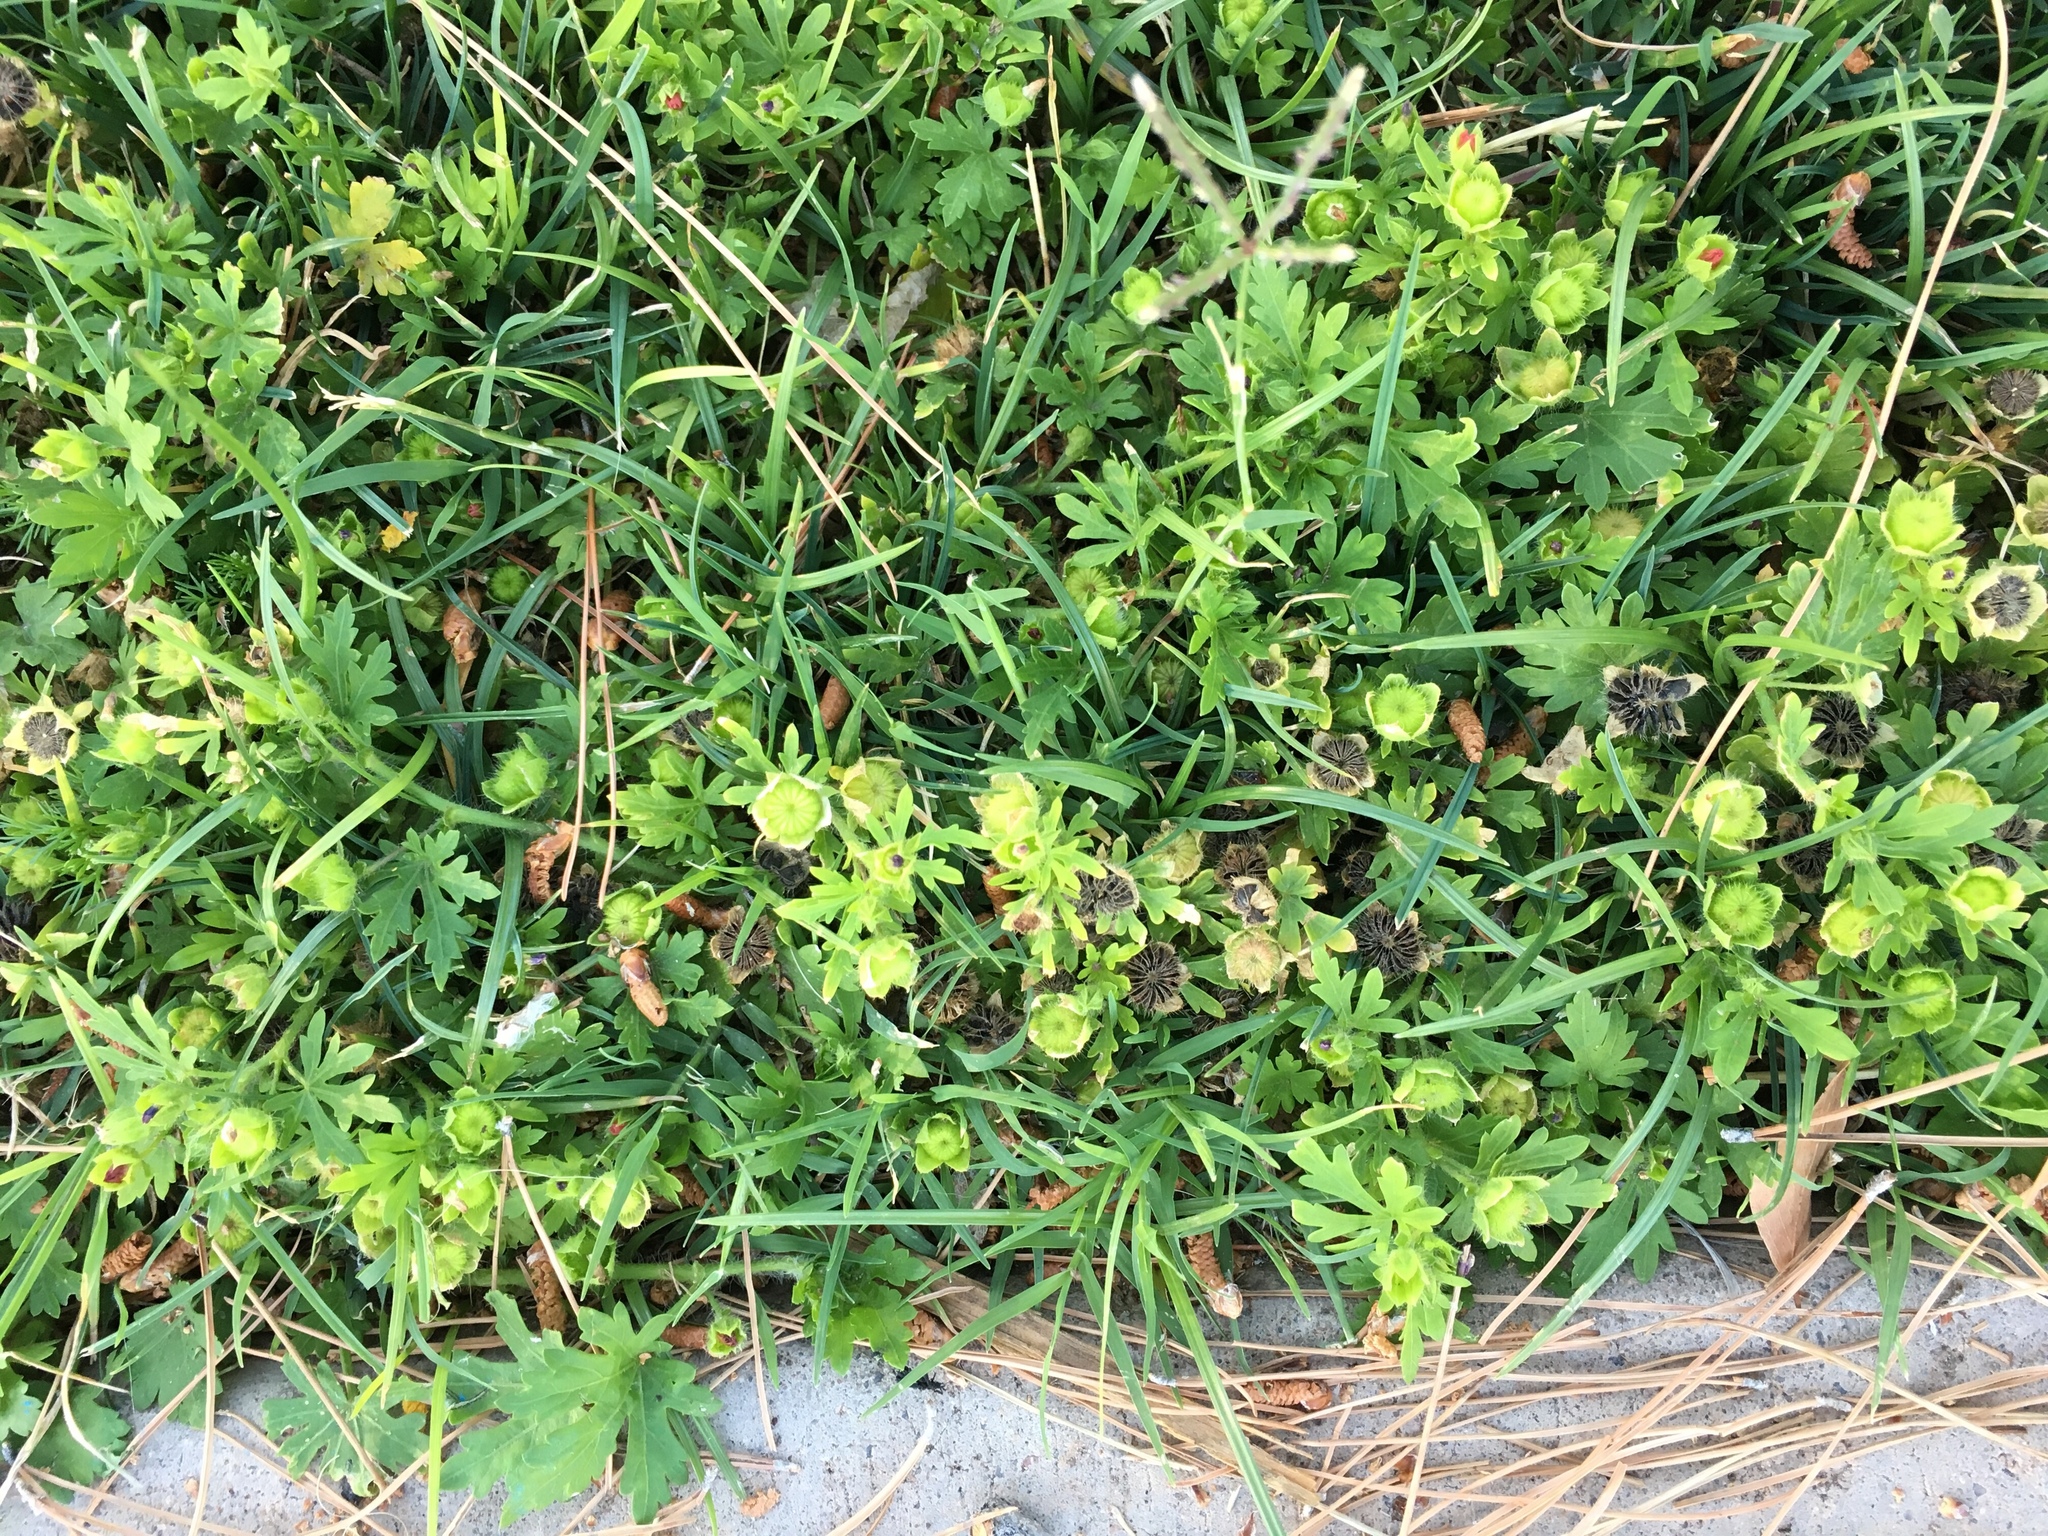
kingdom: Plantae
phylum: Tracheophyta
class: Magnoliopsida
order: Malvales
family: Malvaceae
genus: Modiola
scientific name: Modiola caroliniana
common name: Carolina bristlemallow
